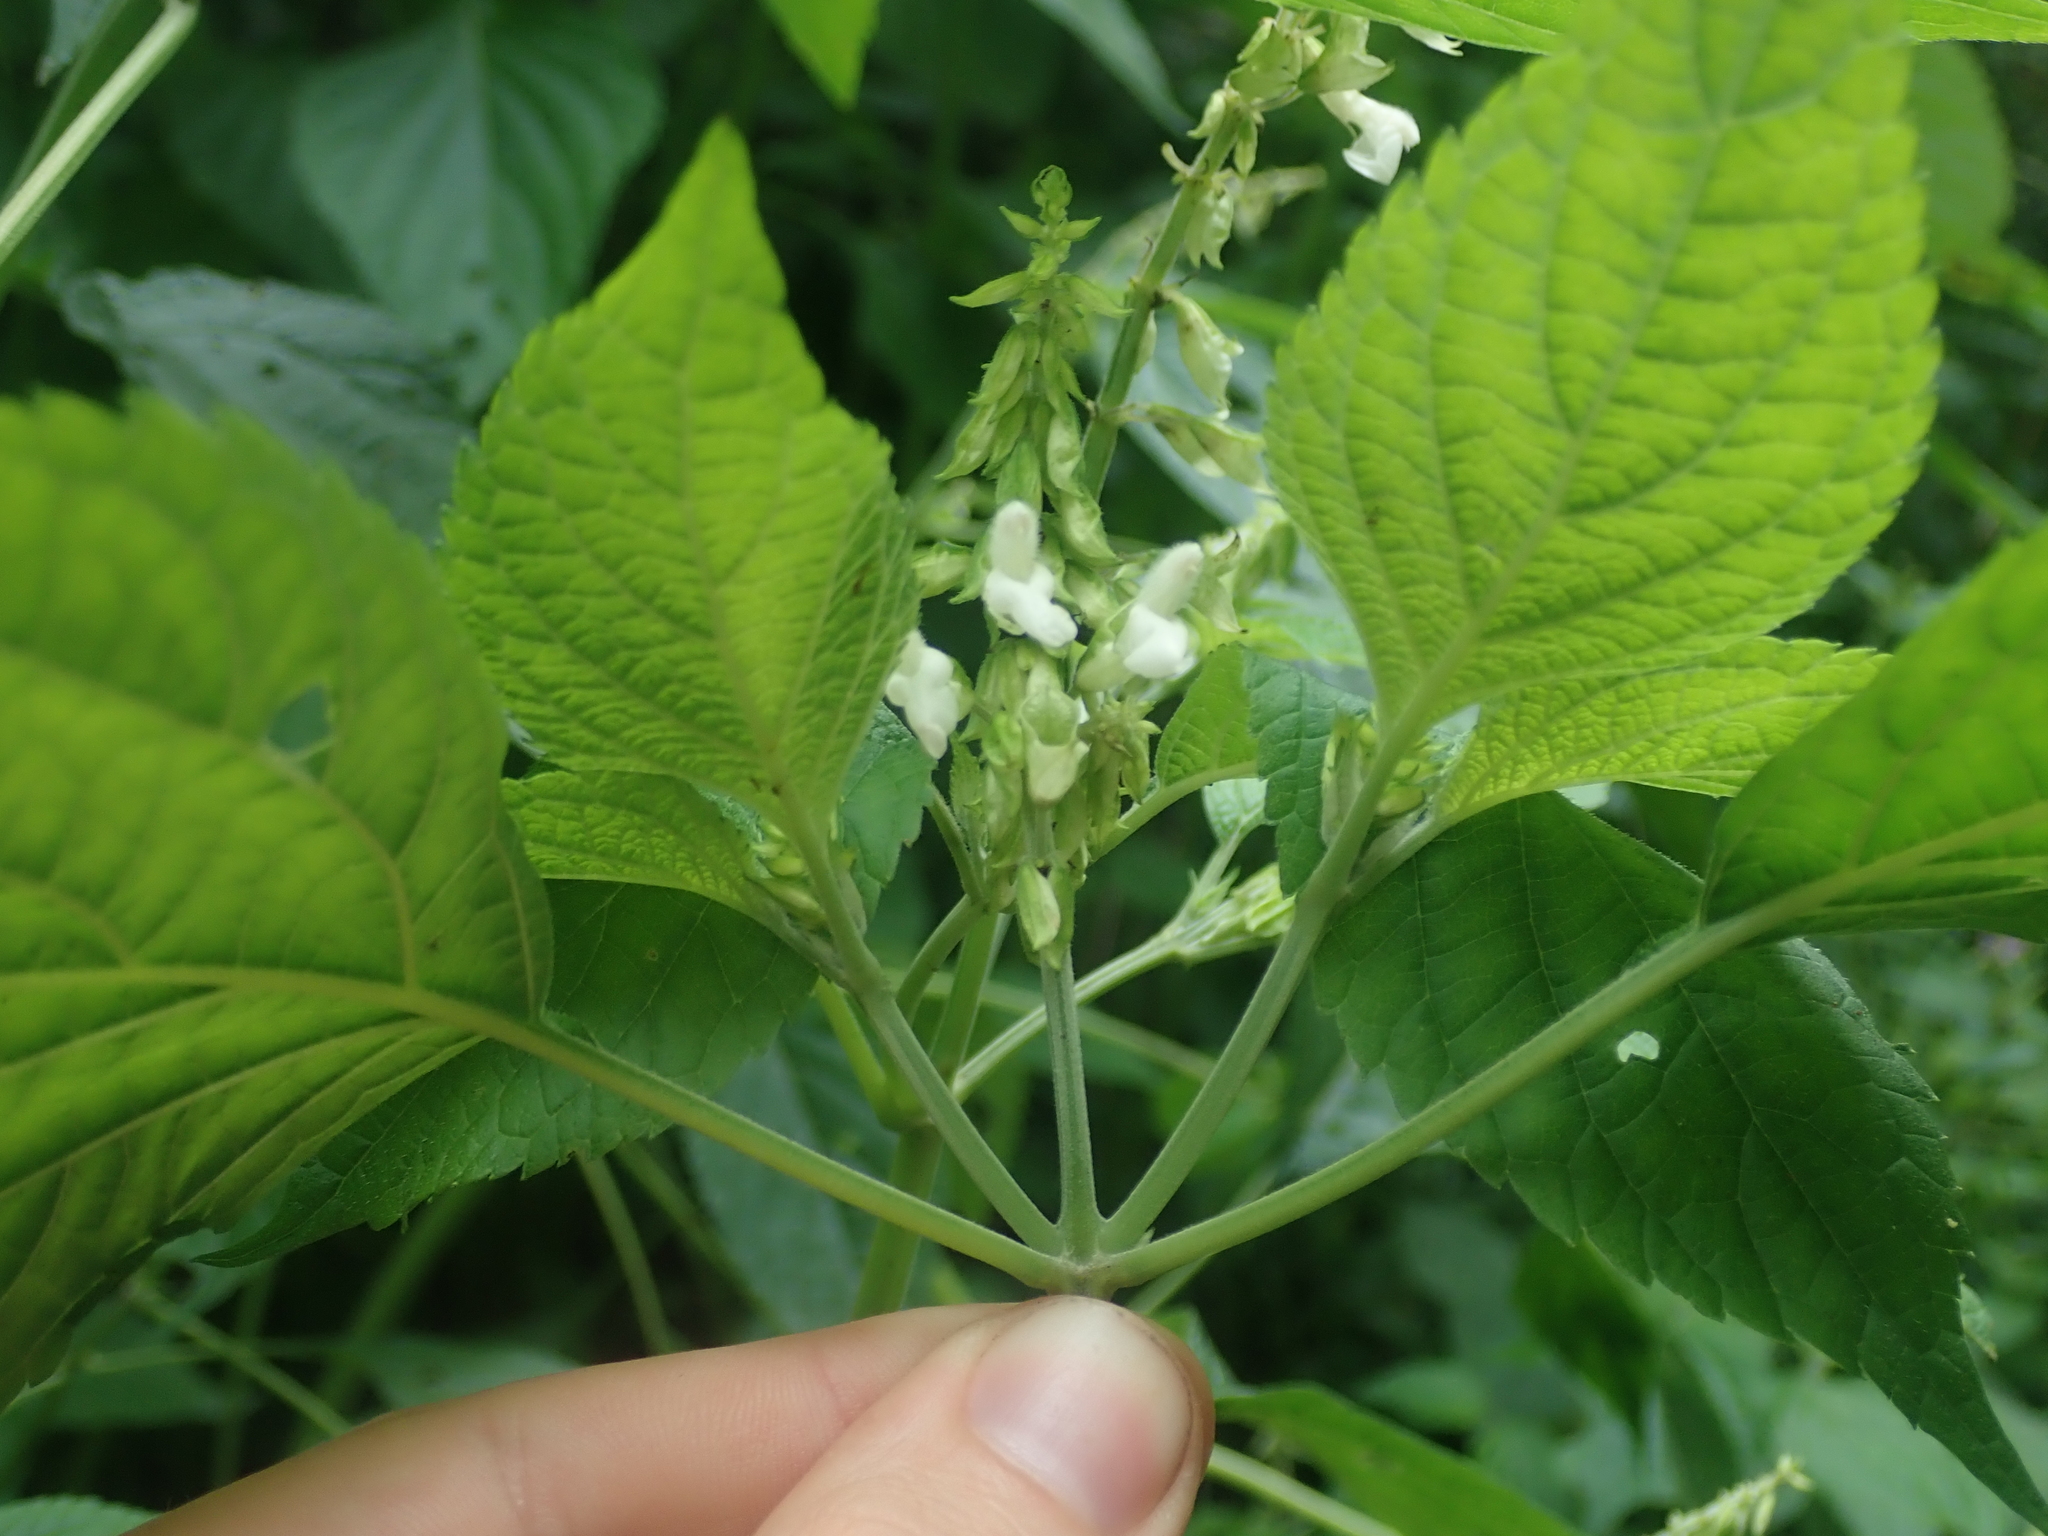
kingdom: Plantae
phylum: Tracheophyta
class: Magnoliopsida
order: Lamiales
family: Lamiaceae
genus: Salvia
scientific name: Salvia personata
